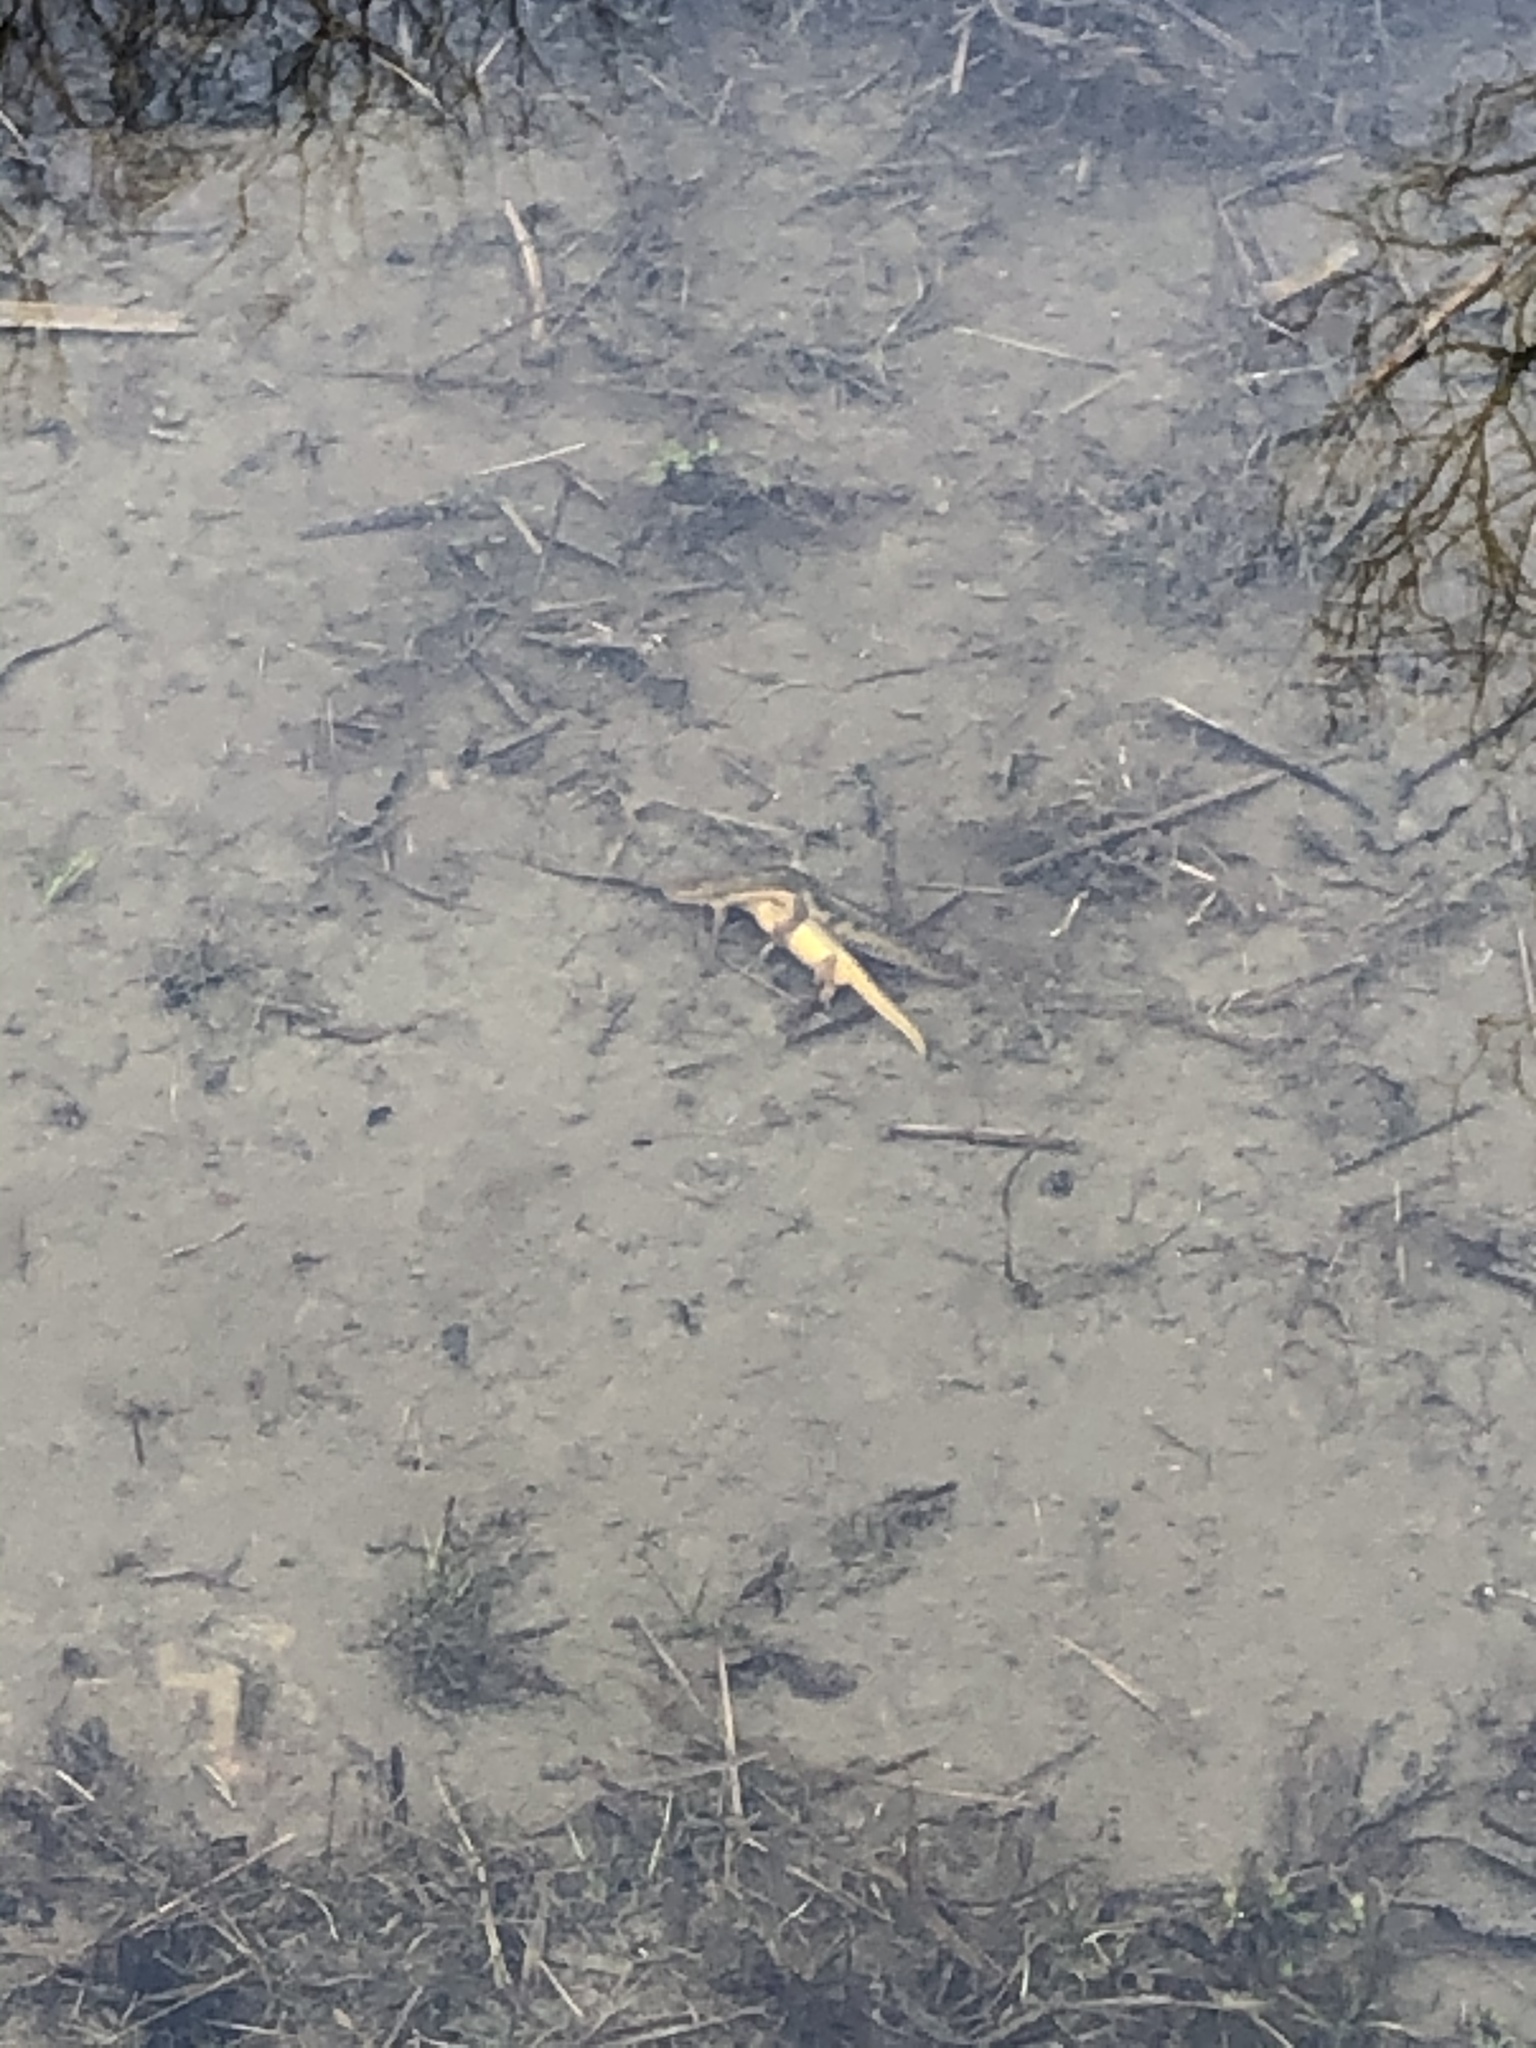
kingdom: Animalia
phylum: Chordata
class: Amphibia
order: Caudata
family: Salamandridae
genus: Notophthalmus
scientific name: Notophthalmus viridescens
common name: Eastern newt
